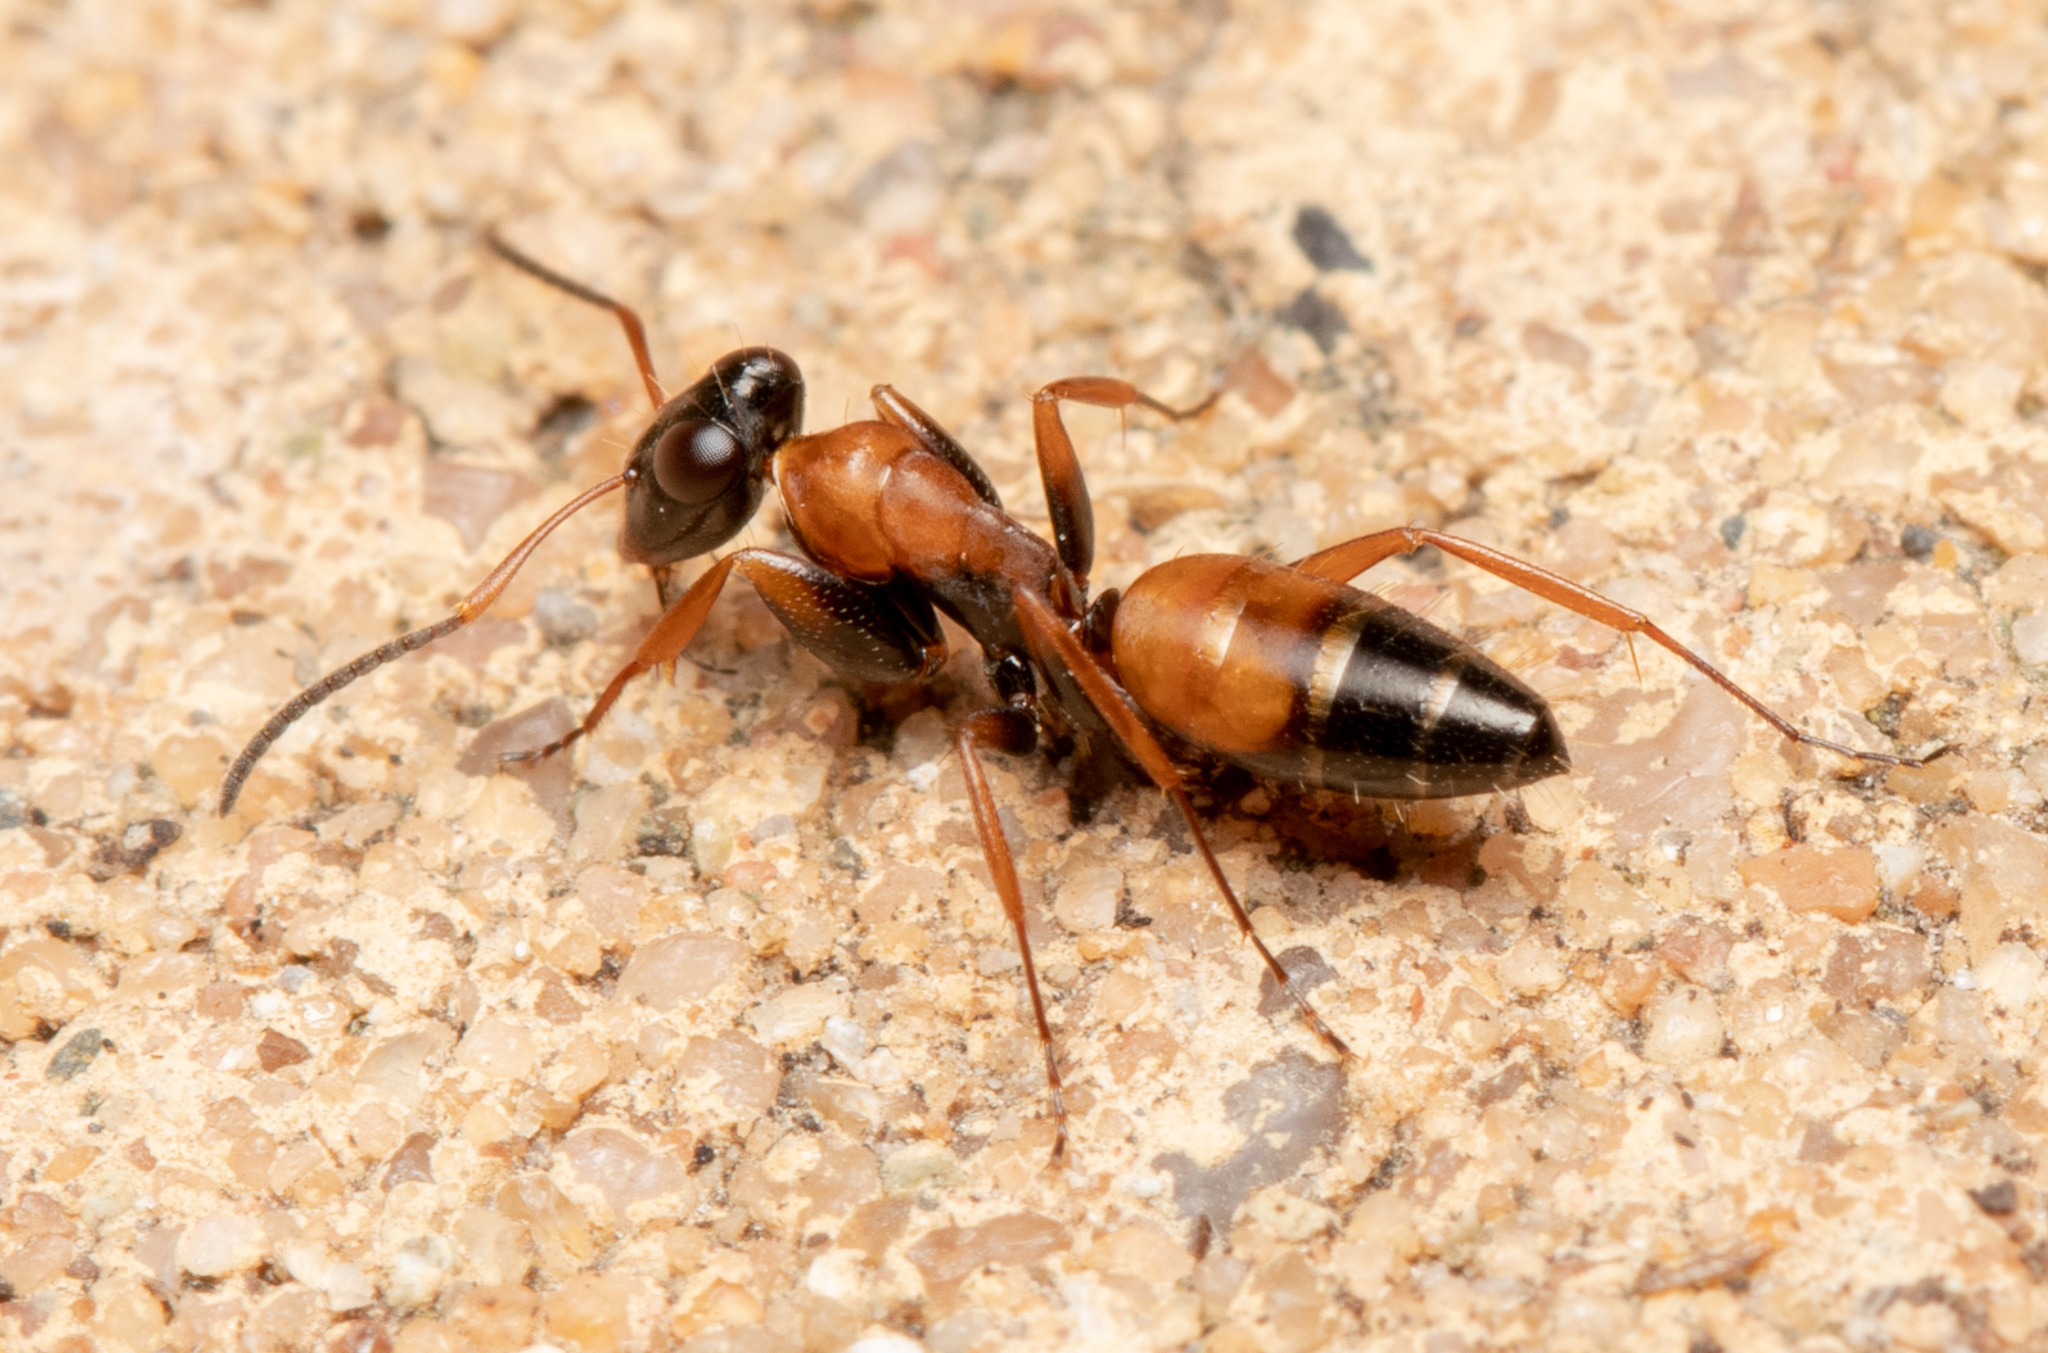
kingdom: Animalia
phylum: Arthropoda
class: Insecta
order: Hymenoptera
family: Formicidae
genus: Opisthopsis
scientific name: Opisthopsis pictus
